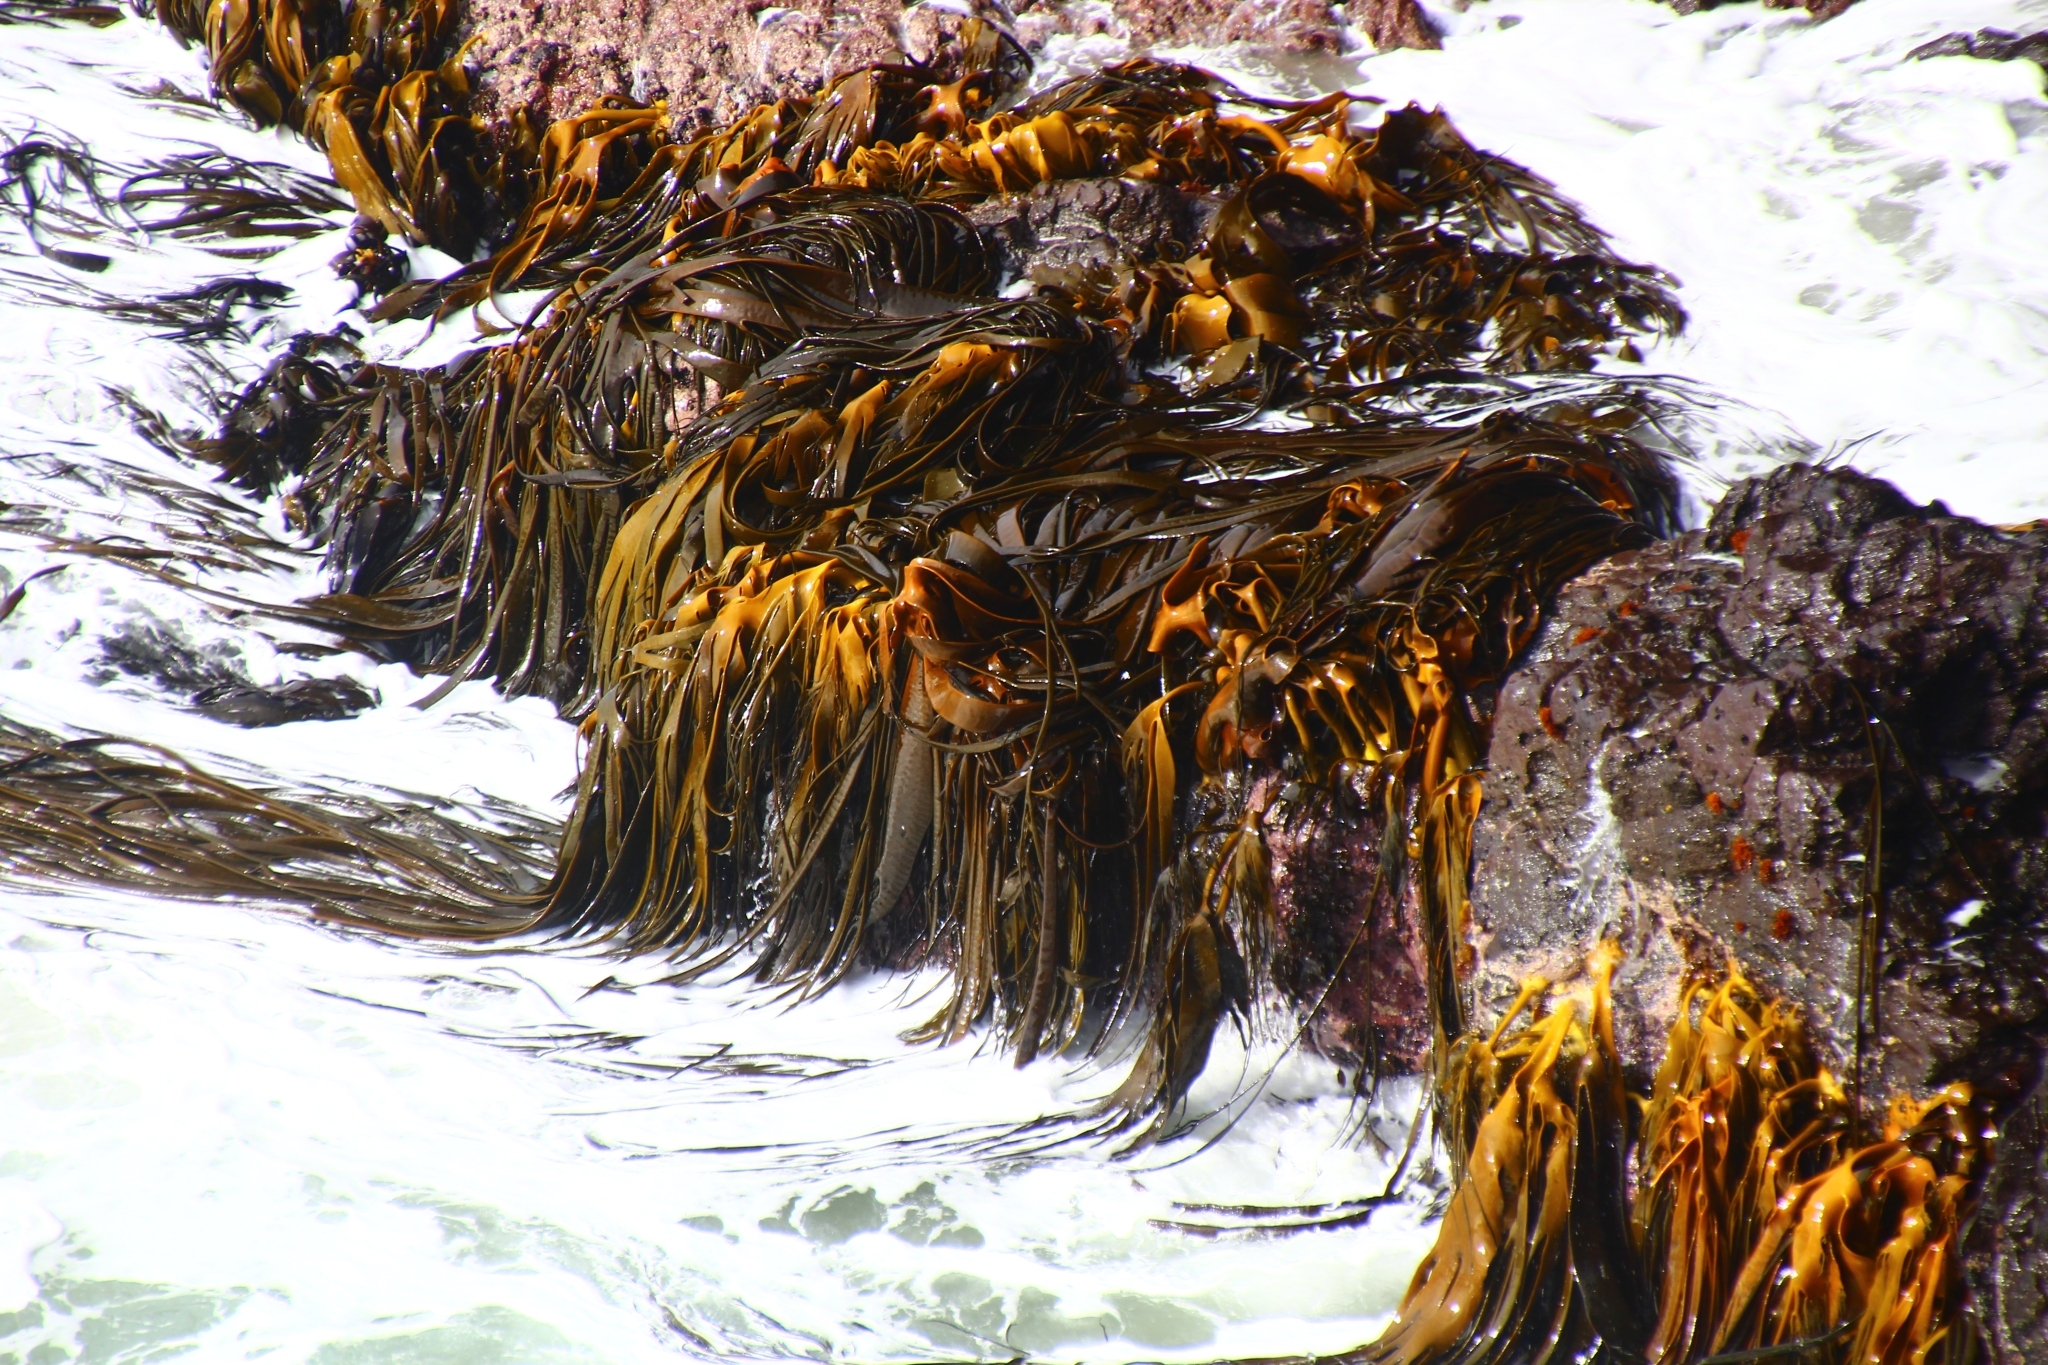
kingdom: Chromista
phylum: Ochrophyta
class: Phaeophyceae
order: Fucales
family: Durvillaeaceae
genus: Durvillaea
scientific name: Durvillaea antarctica
